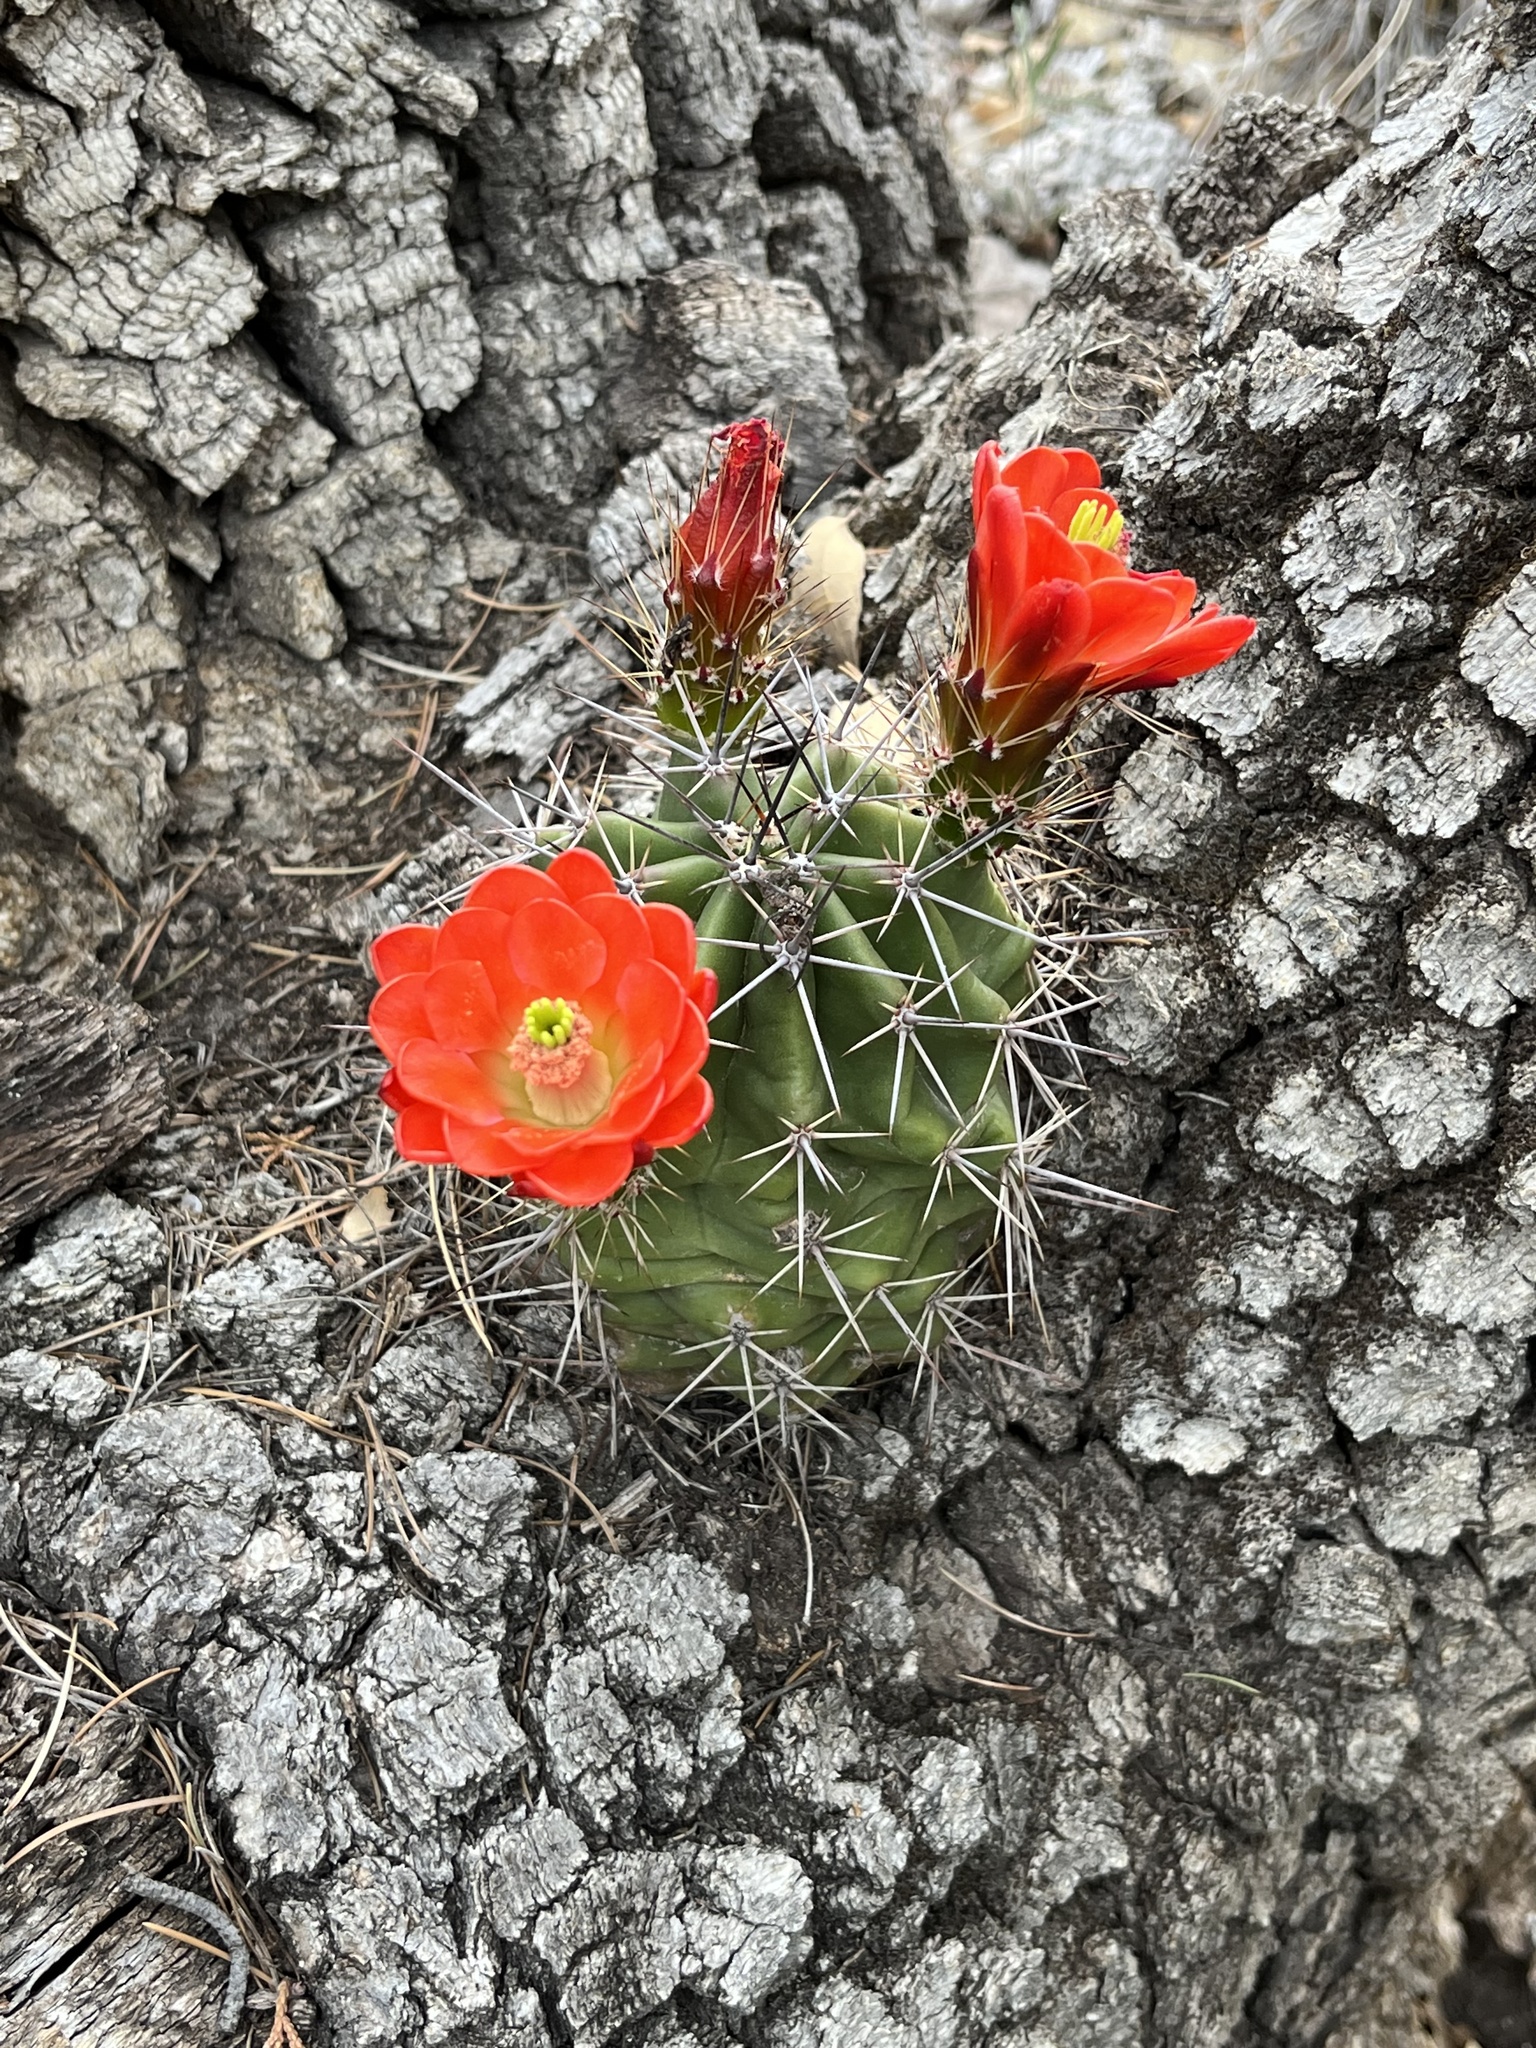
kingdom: Plantae
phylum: Tracheophyta
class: Magnoliopsida
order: Caryophyllales
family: Cactaceae
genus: Echinocereus
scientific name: Echinocereus coccineus
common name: Scarlet hedgehog cactus
